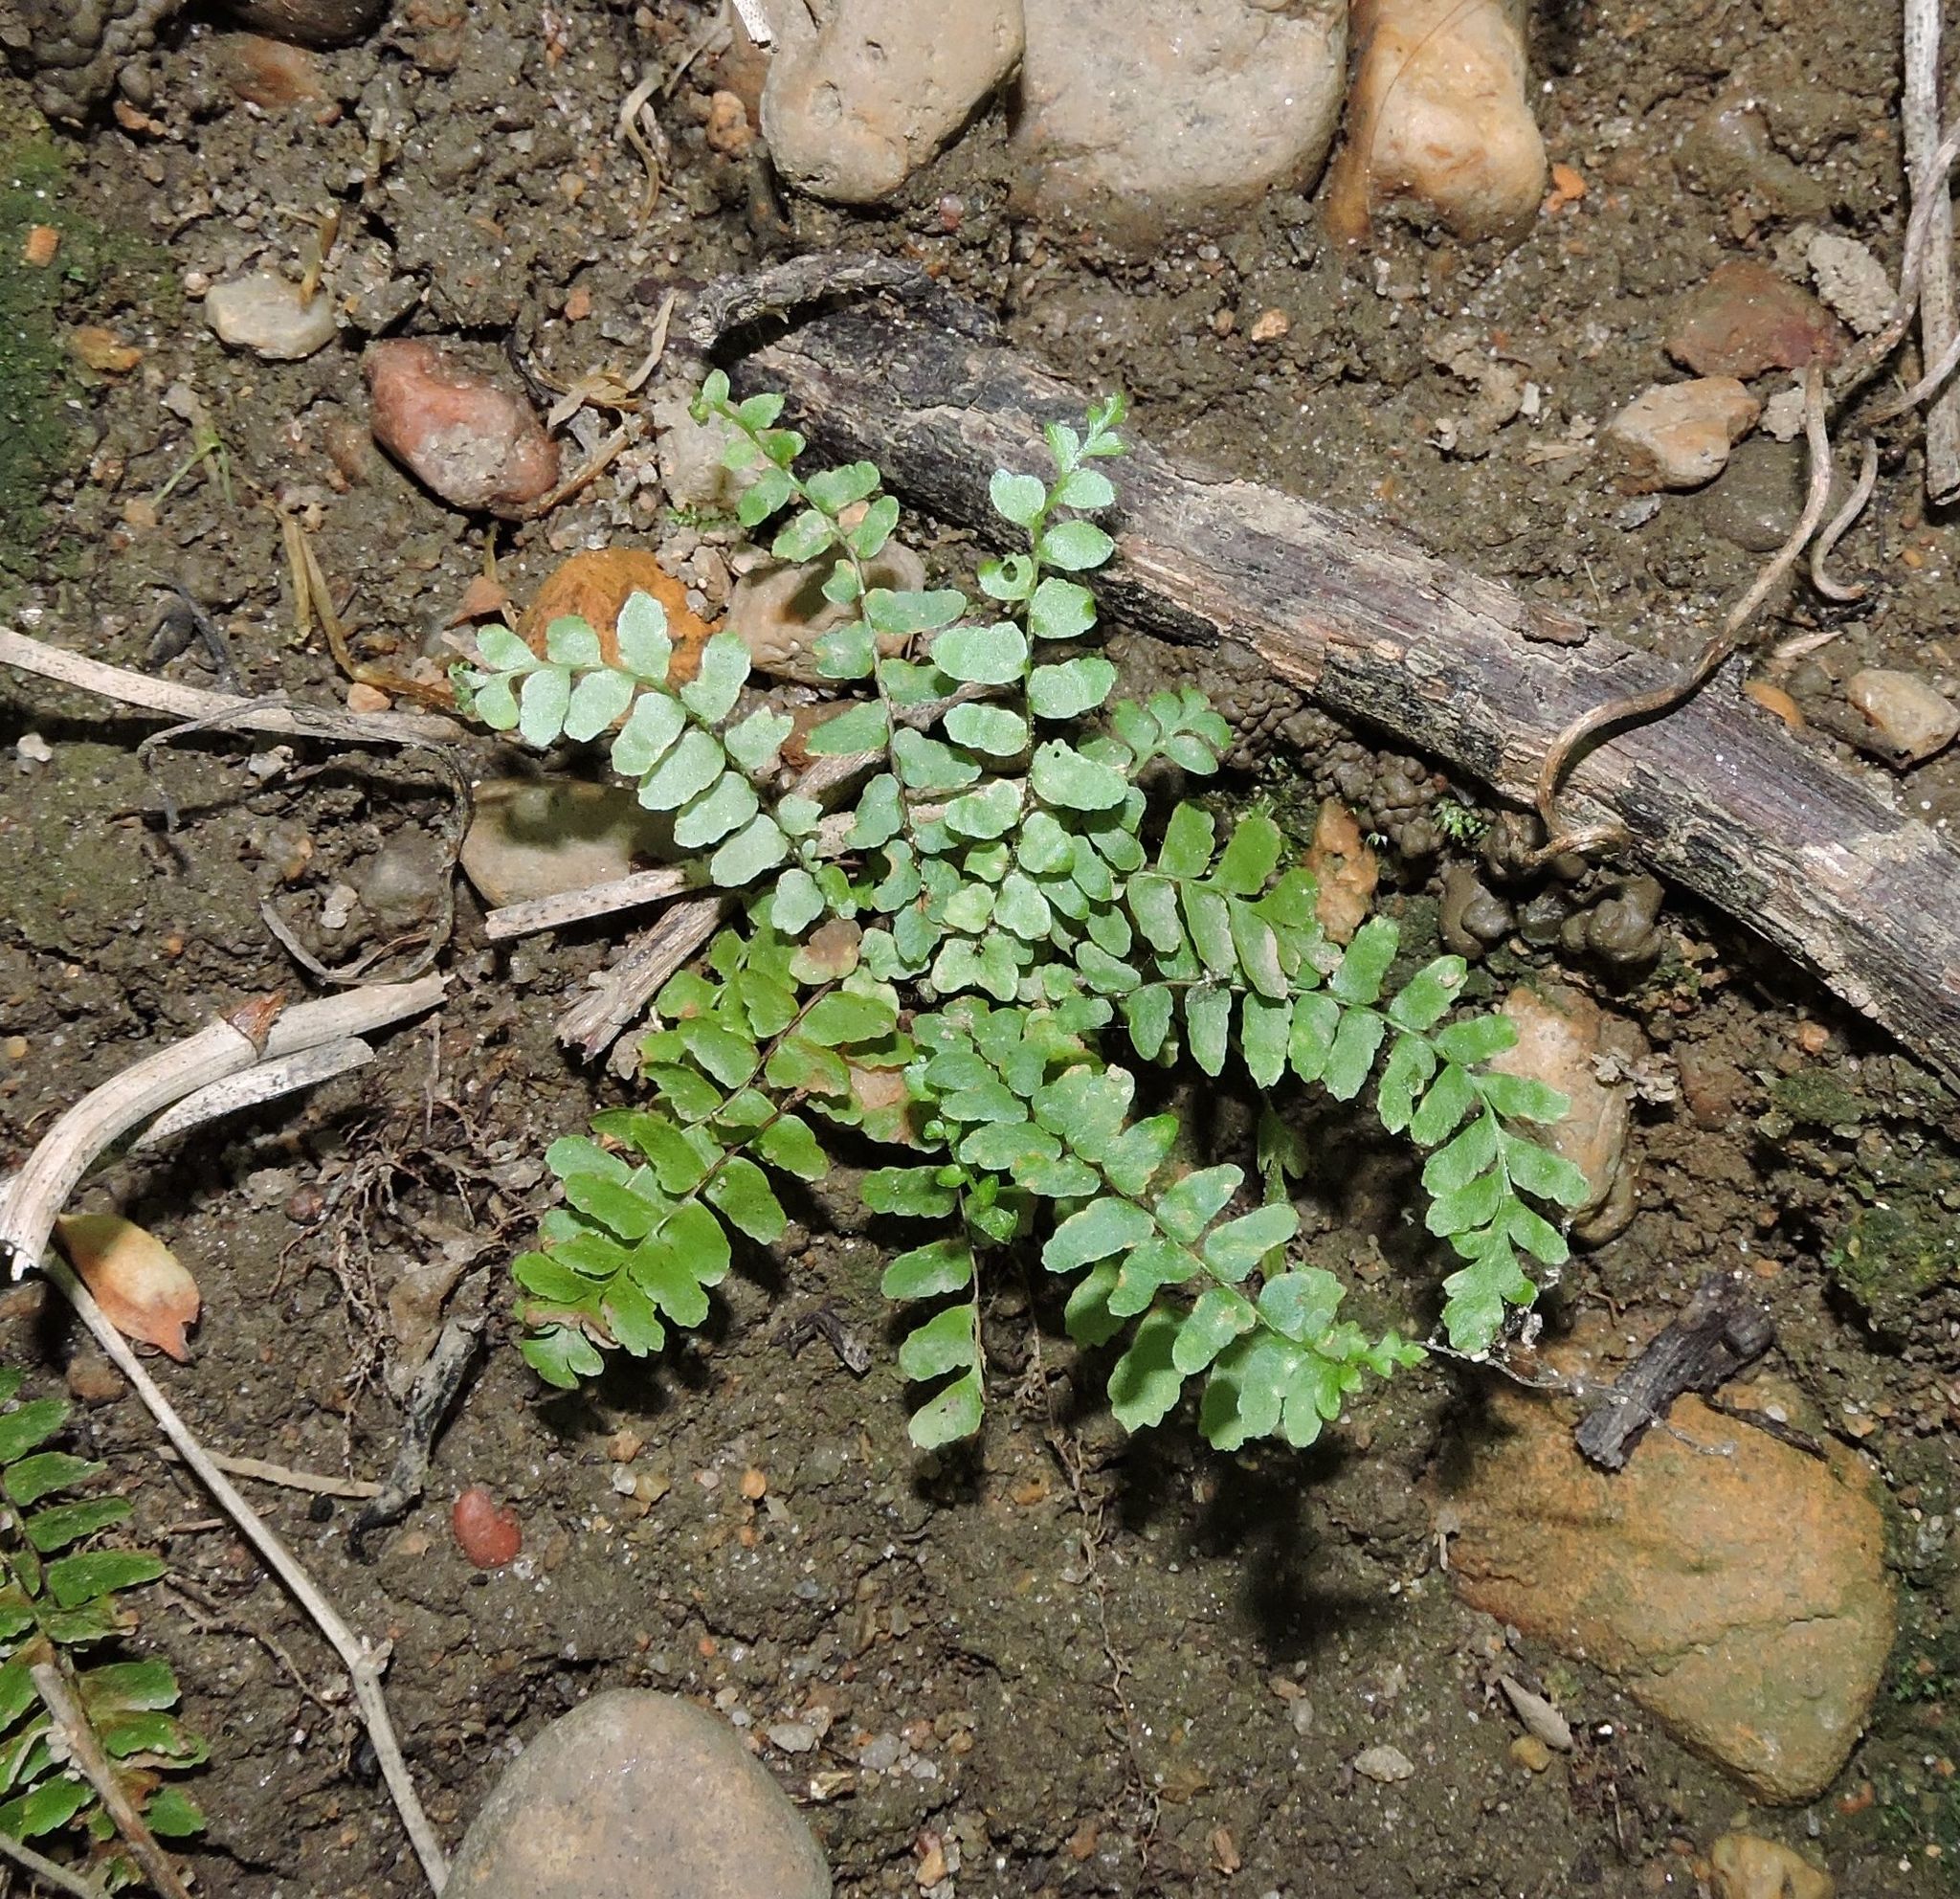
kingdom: Plantae
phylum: Tracheophyta
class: Polypodiopsida
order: Polypodiales
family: Aspleniaceae
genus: Asplenium
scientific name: Asplenium platyneuron
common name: Ebony spleenwort
